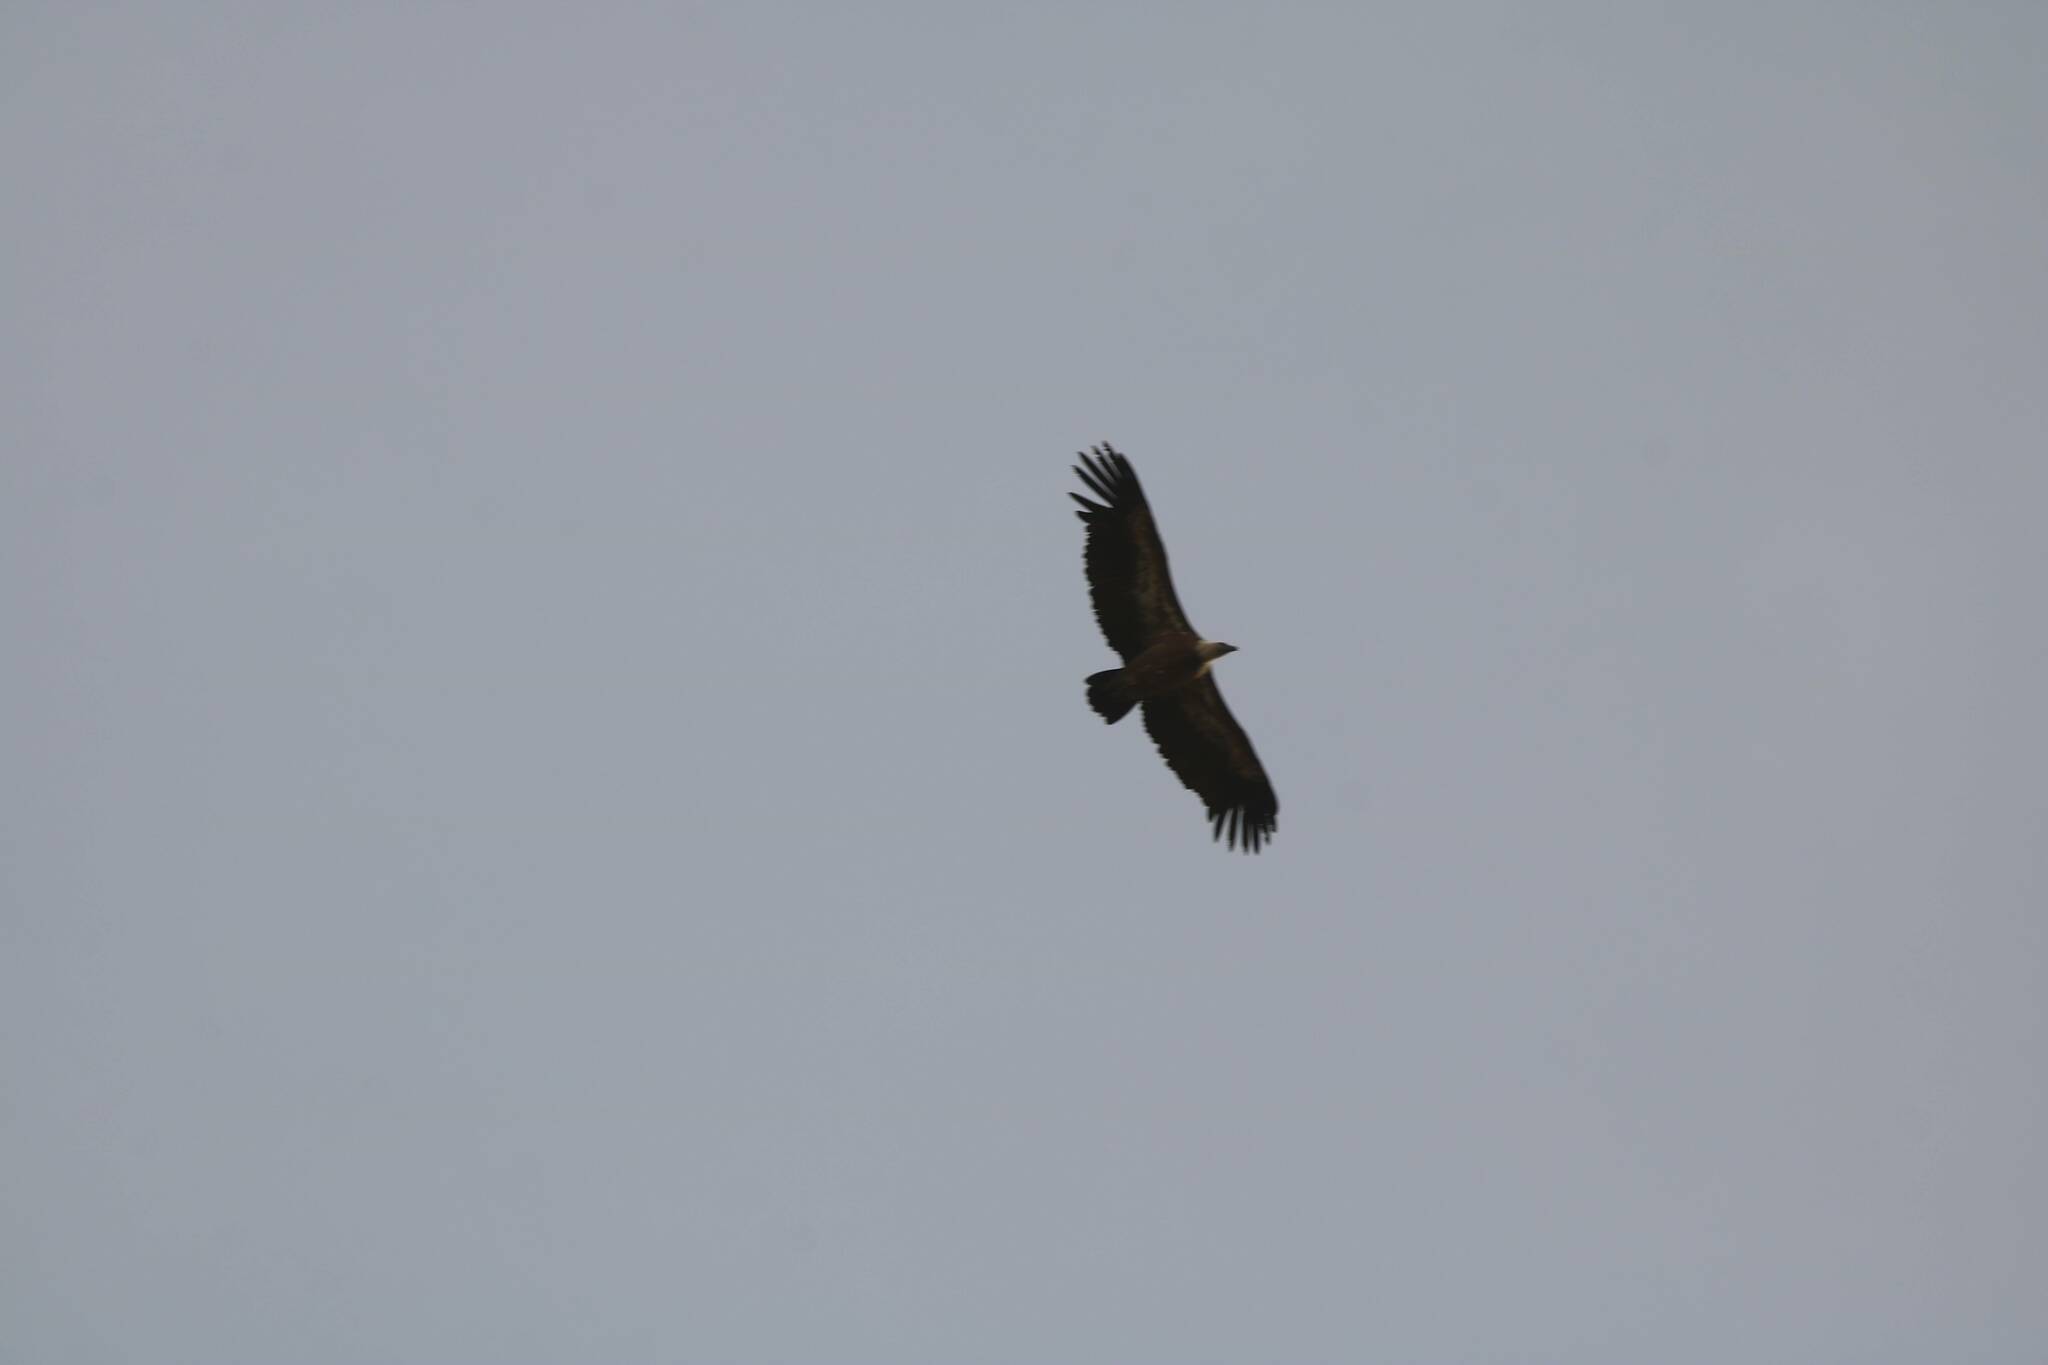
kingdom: Animalia
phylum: Chordata
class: Aves
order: Accipitriformes
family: Accipitridae
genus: Gyps
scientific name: Gyps fulvus
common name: Griffon vulture
